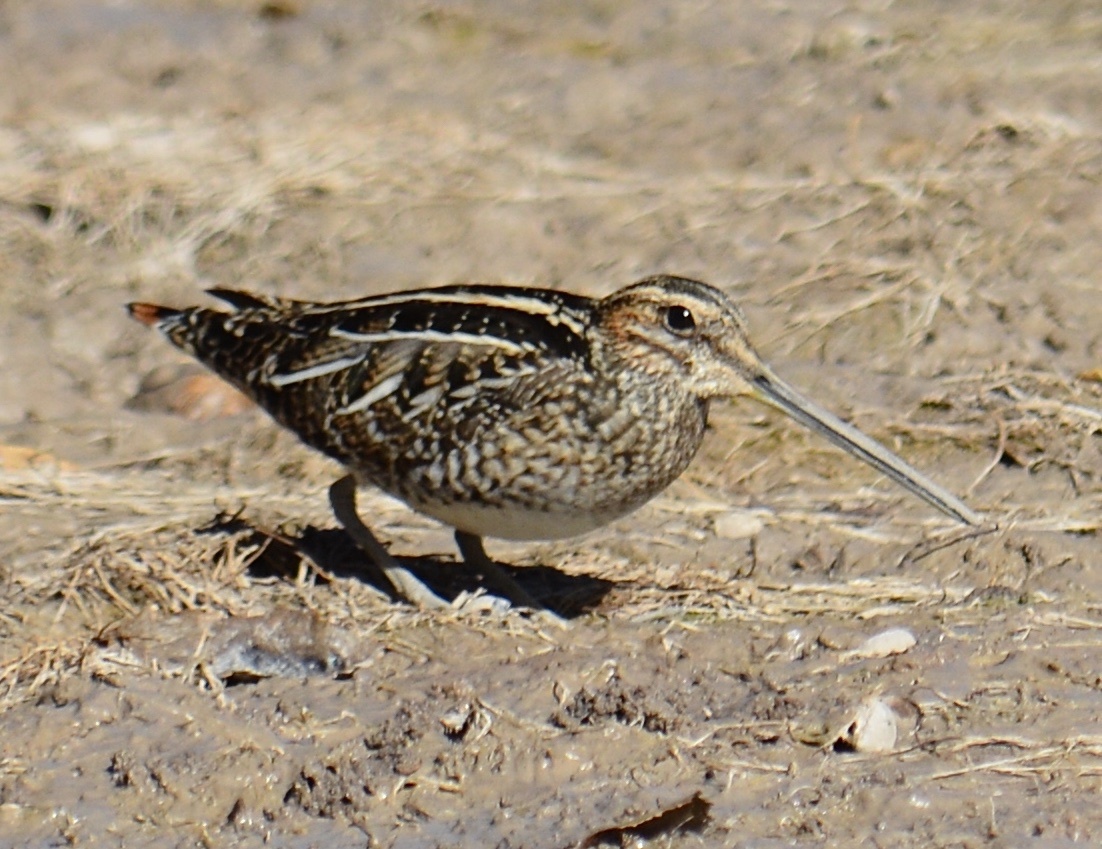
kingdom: Animalia
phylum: Chordata
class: Aves
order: Charadriiformes
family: Scolopacidae
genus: Gallinago
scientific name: Gallinago delicata
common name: Wilson's snipe
